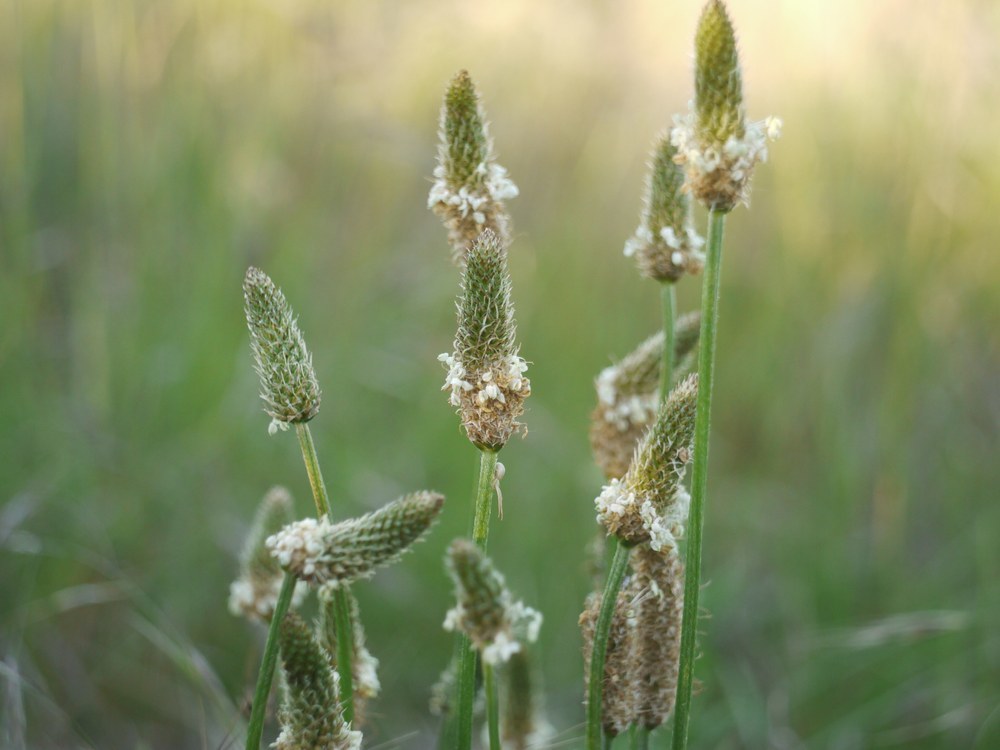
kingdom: Plantae
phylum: Tracheophyta
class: Magnoliopsida
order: Lamiales
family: Plantaginaceae
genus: Plantago
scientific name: Plantago lanceolata
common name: Ribwort plantain
